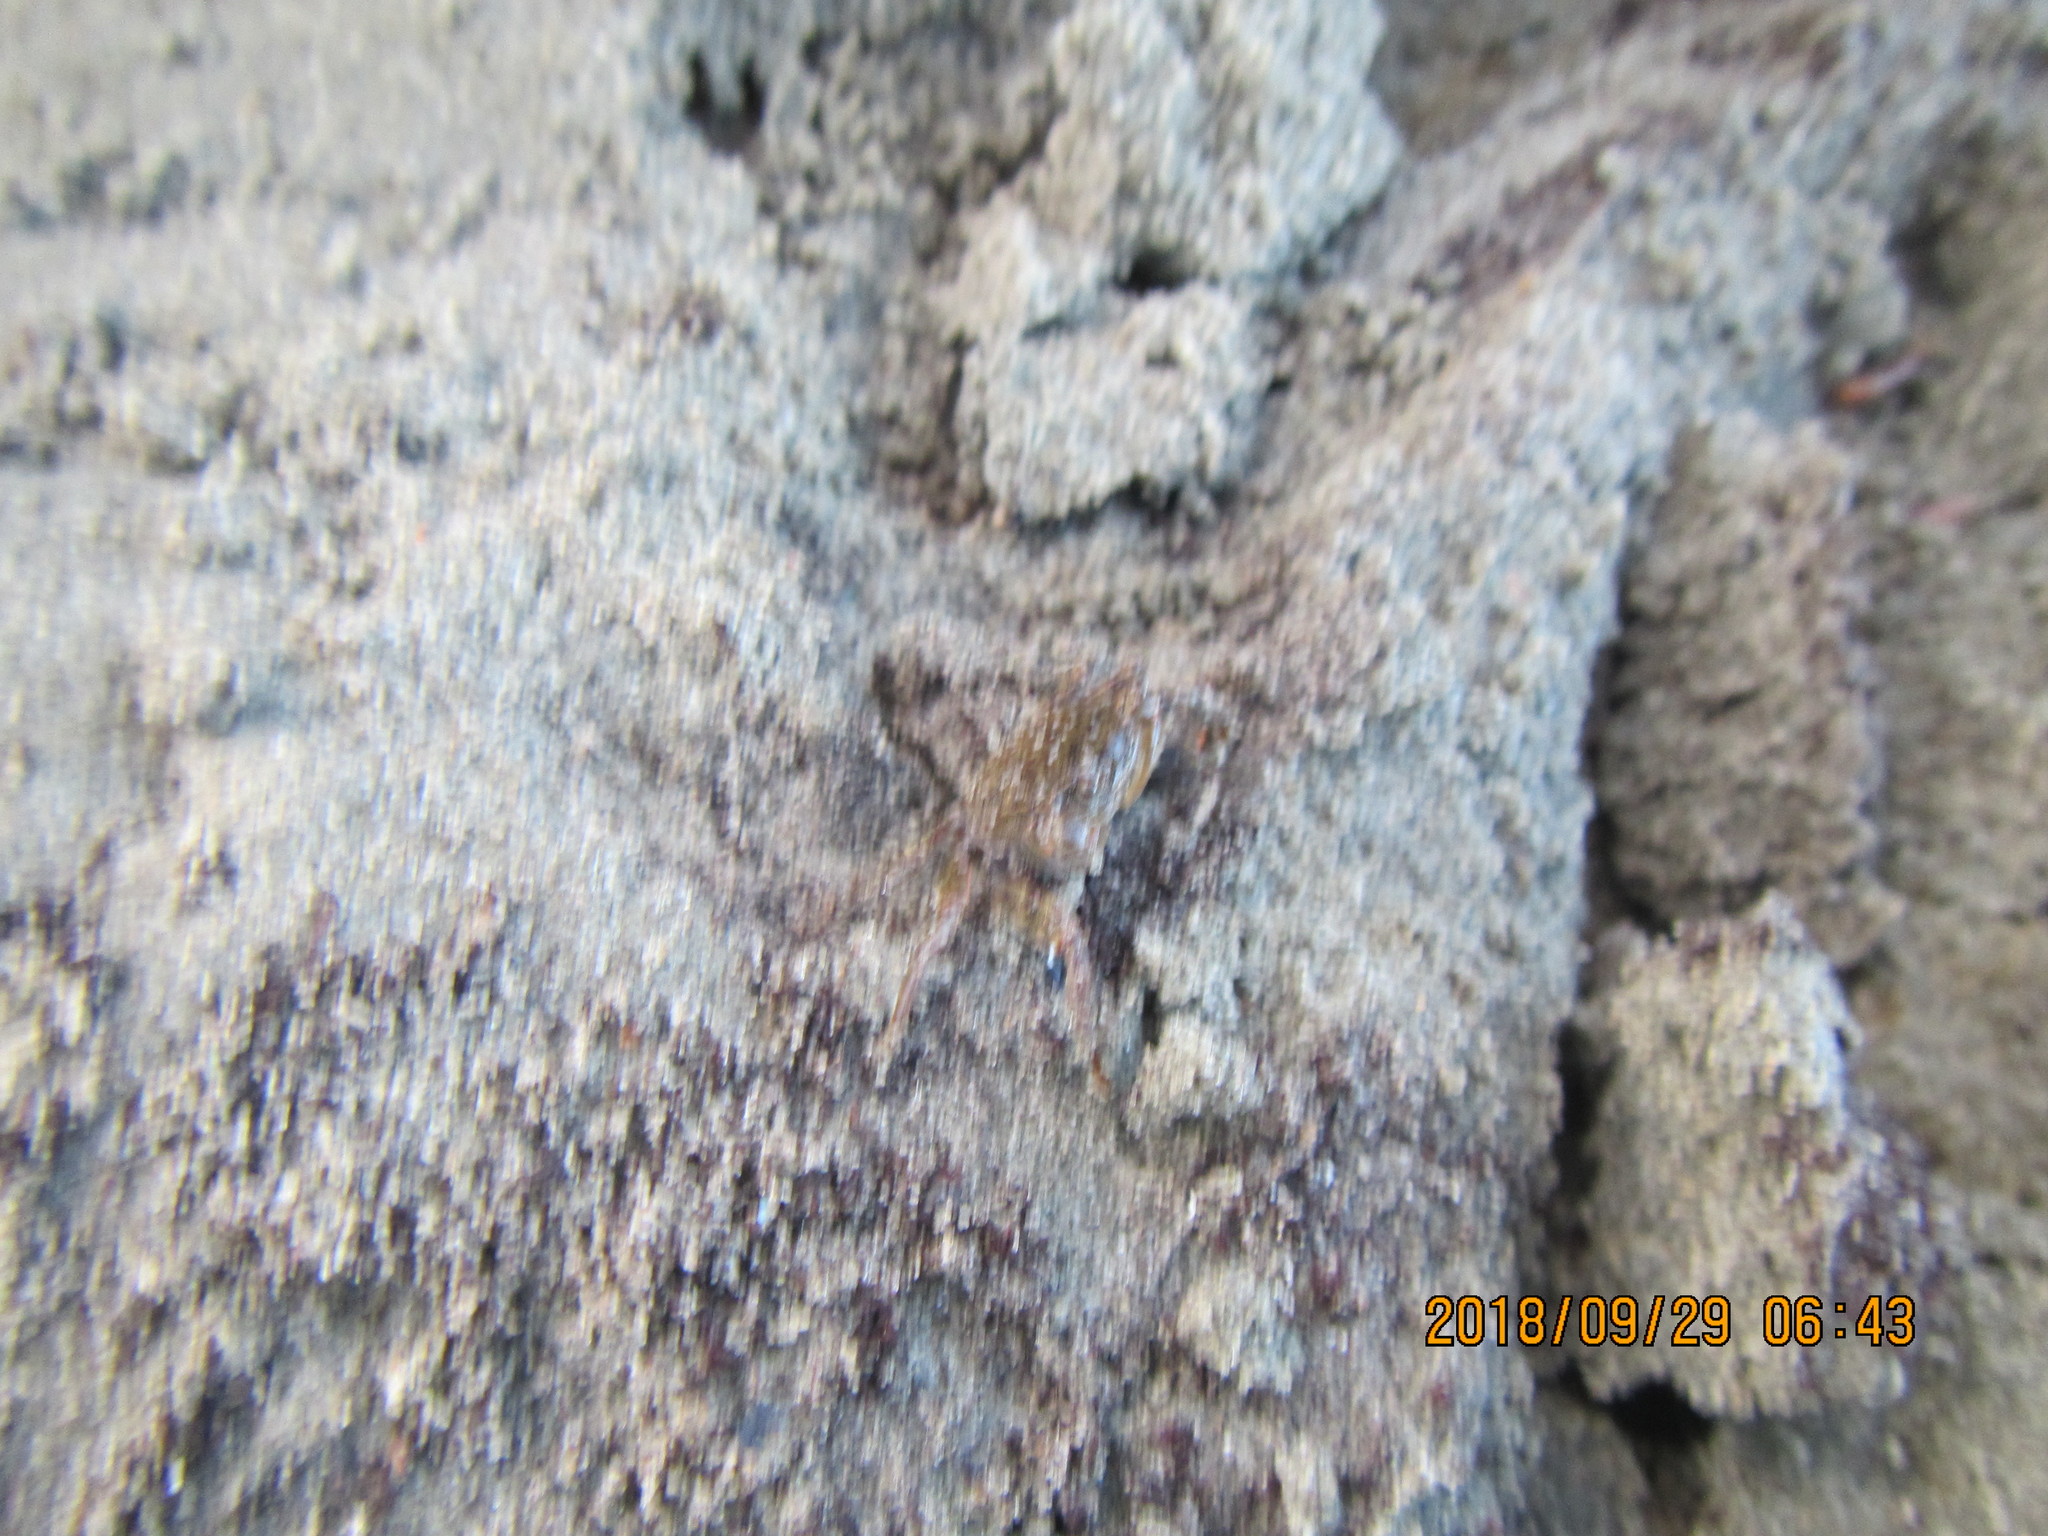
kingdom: Animalia
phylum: Arthropoda
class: Malacostraca
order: Decapoda
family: Varunidae
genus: Austrohelice
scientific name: Austrohelice crassa
